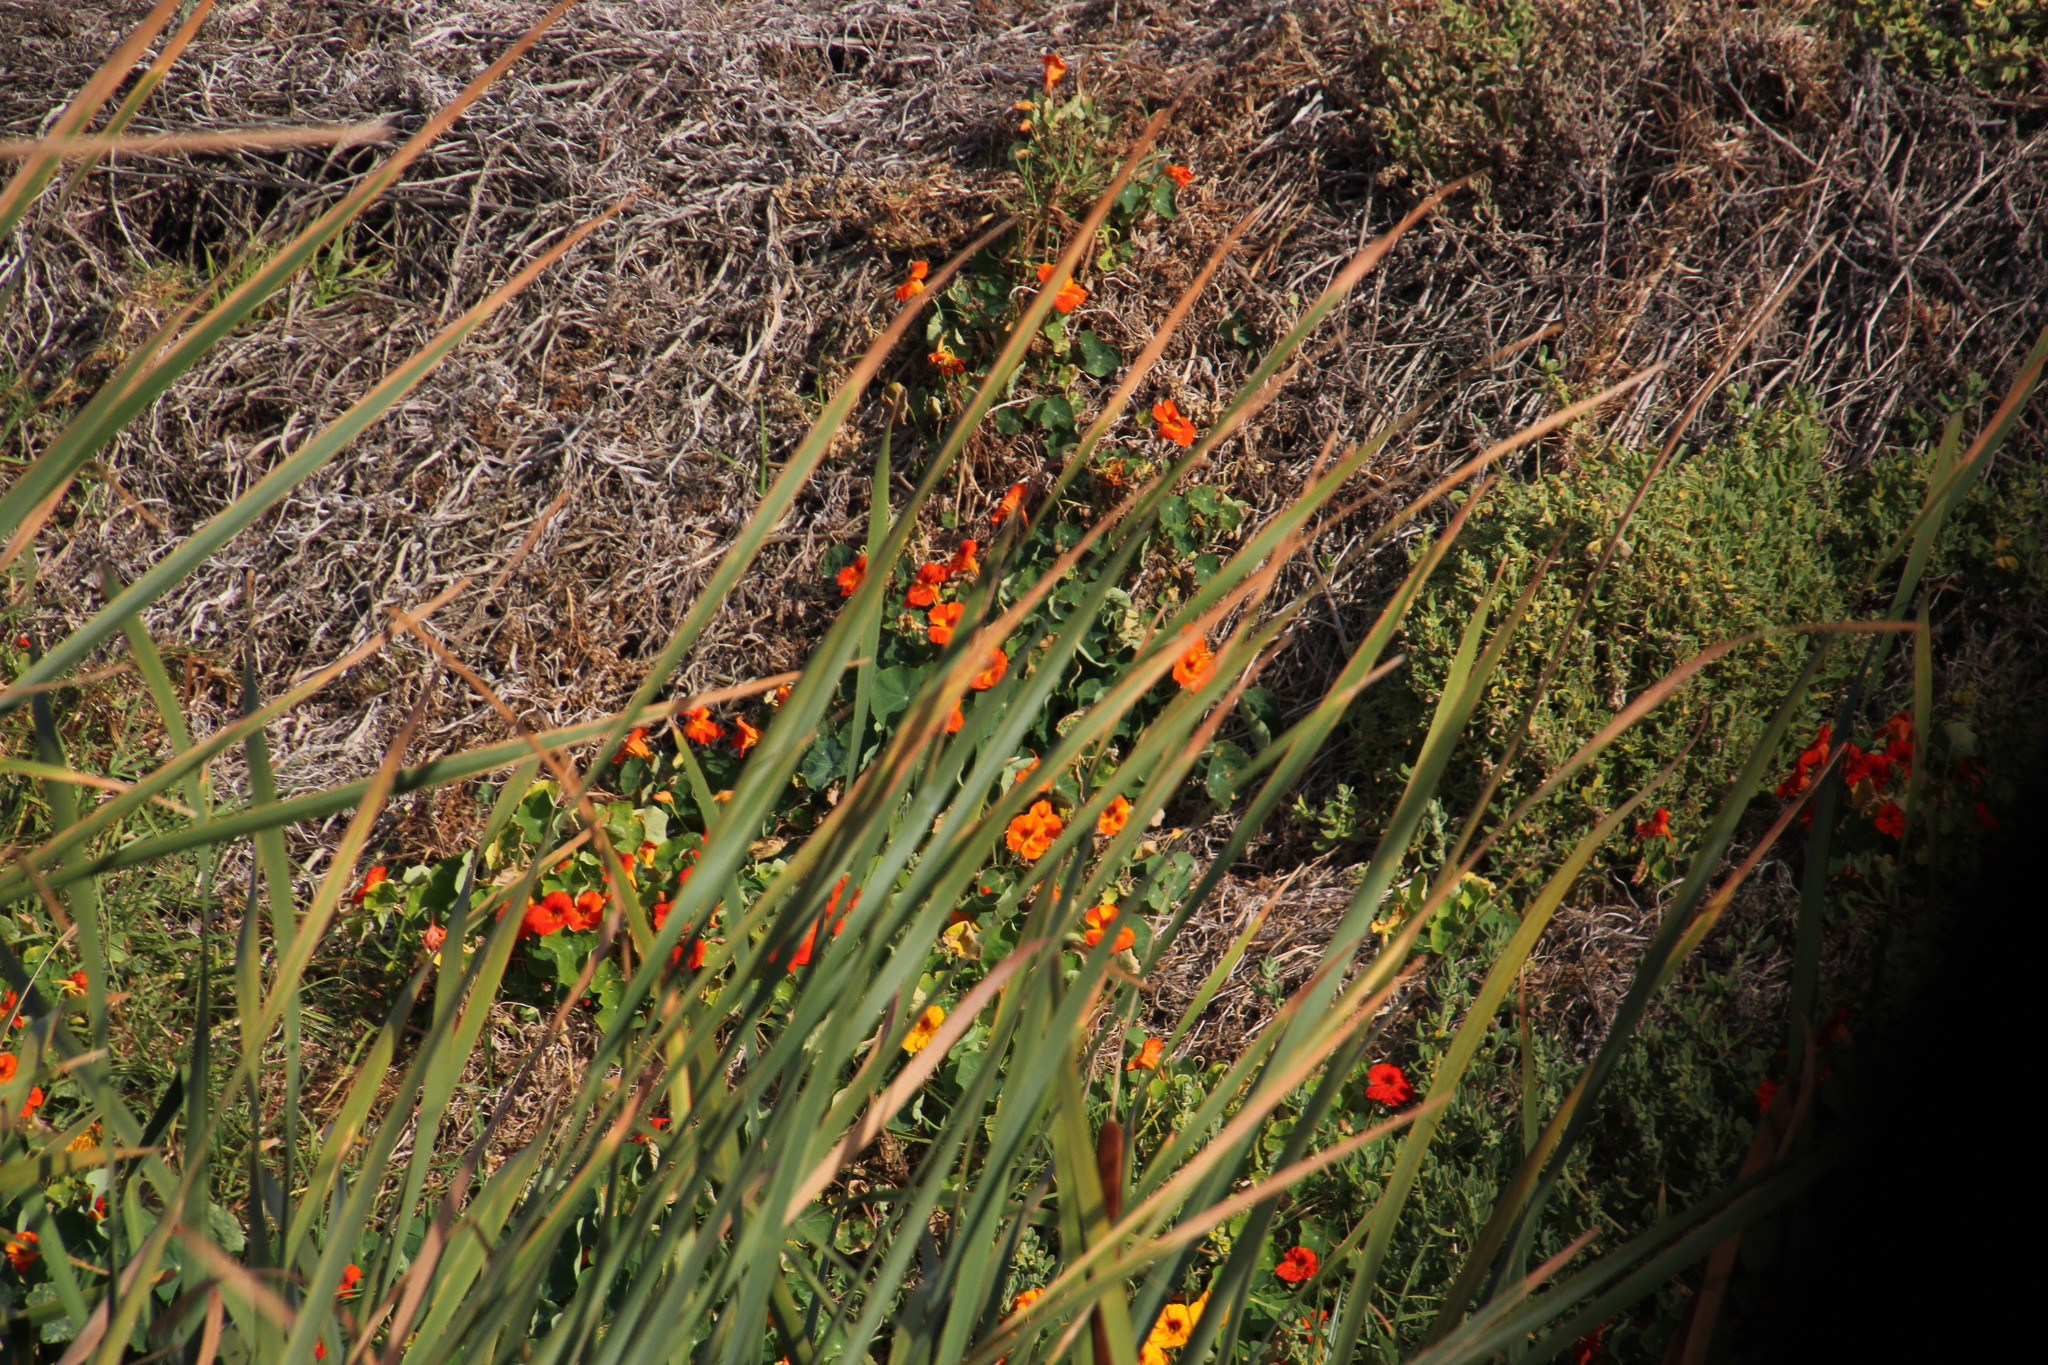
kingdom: Plantae
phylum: Tracheophyta
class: Magnoliopsida
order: Brassicales
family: Tropaeolaceae
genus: Tropaeolum
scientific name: Tropaeolum majus
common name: Nasturtium
